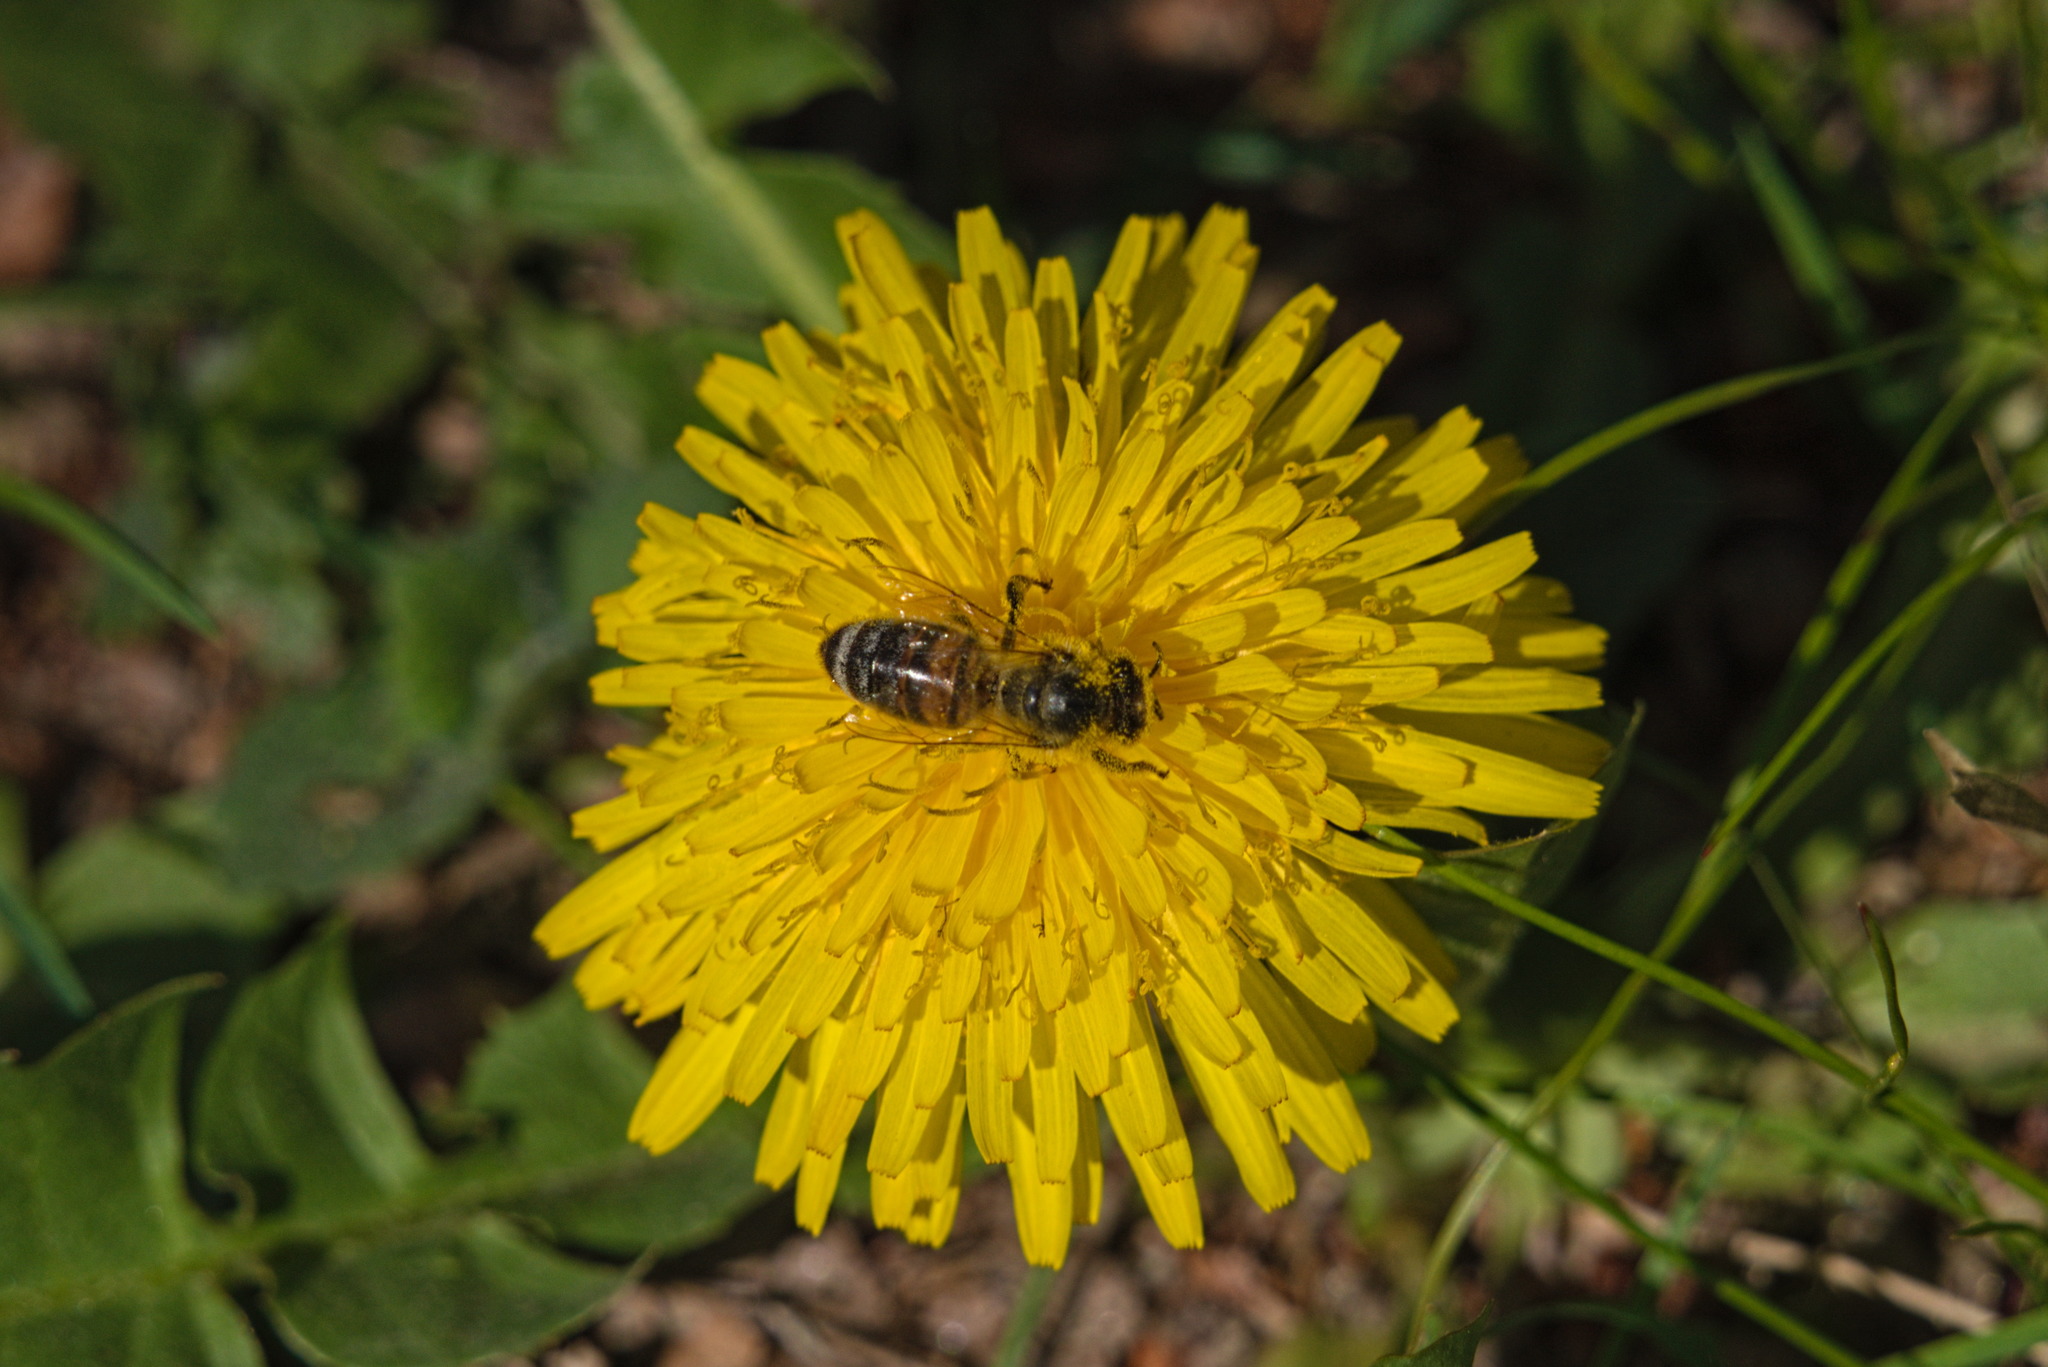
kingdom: Animalia
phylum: Arthropoda
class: Insecta
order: Hymenoptera
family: Apidae
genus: Apis
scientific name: Apis mellifera
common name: Honey bee
